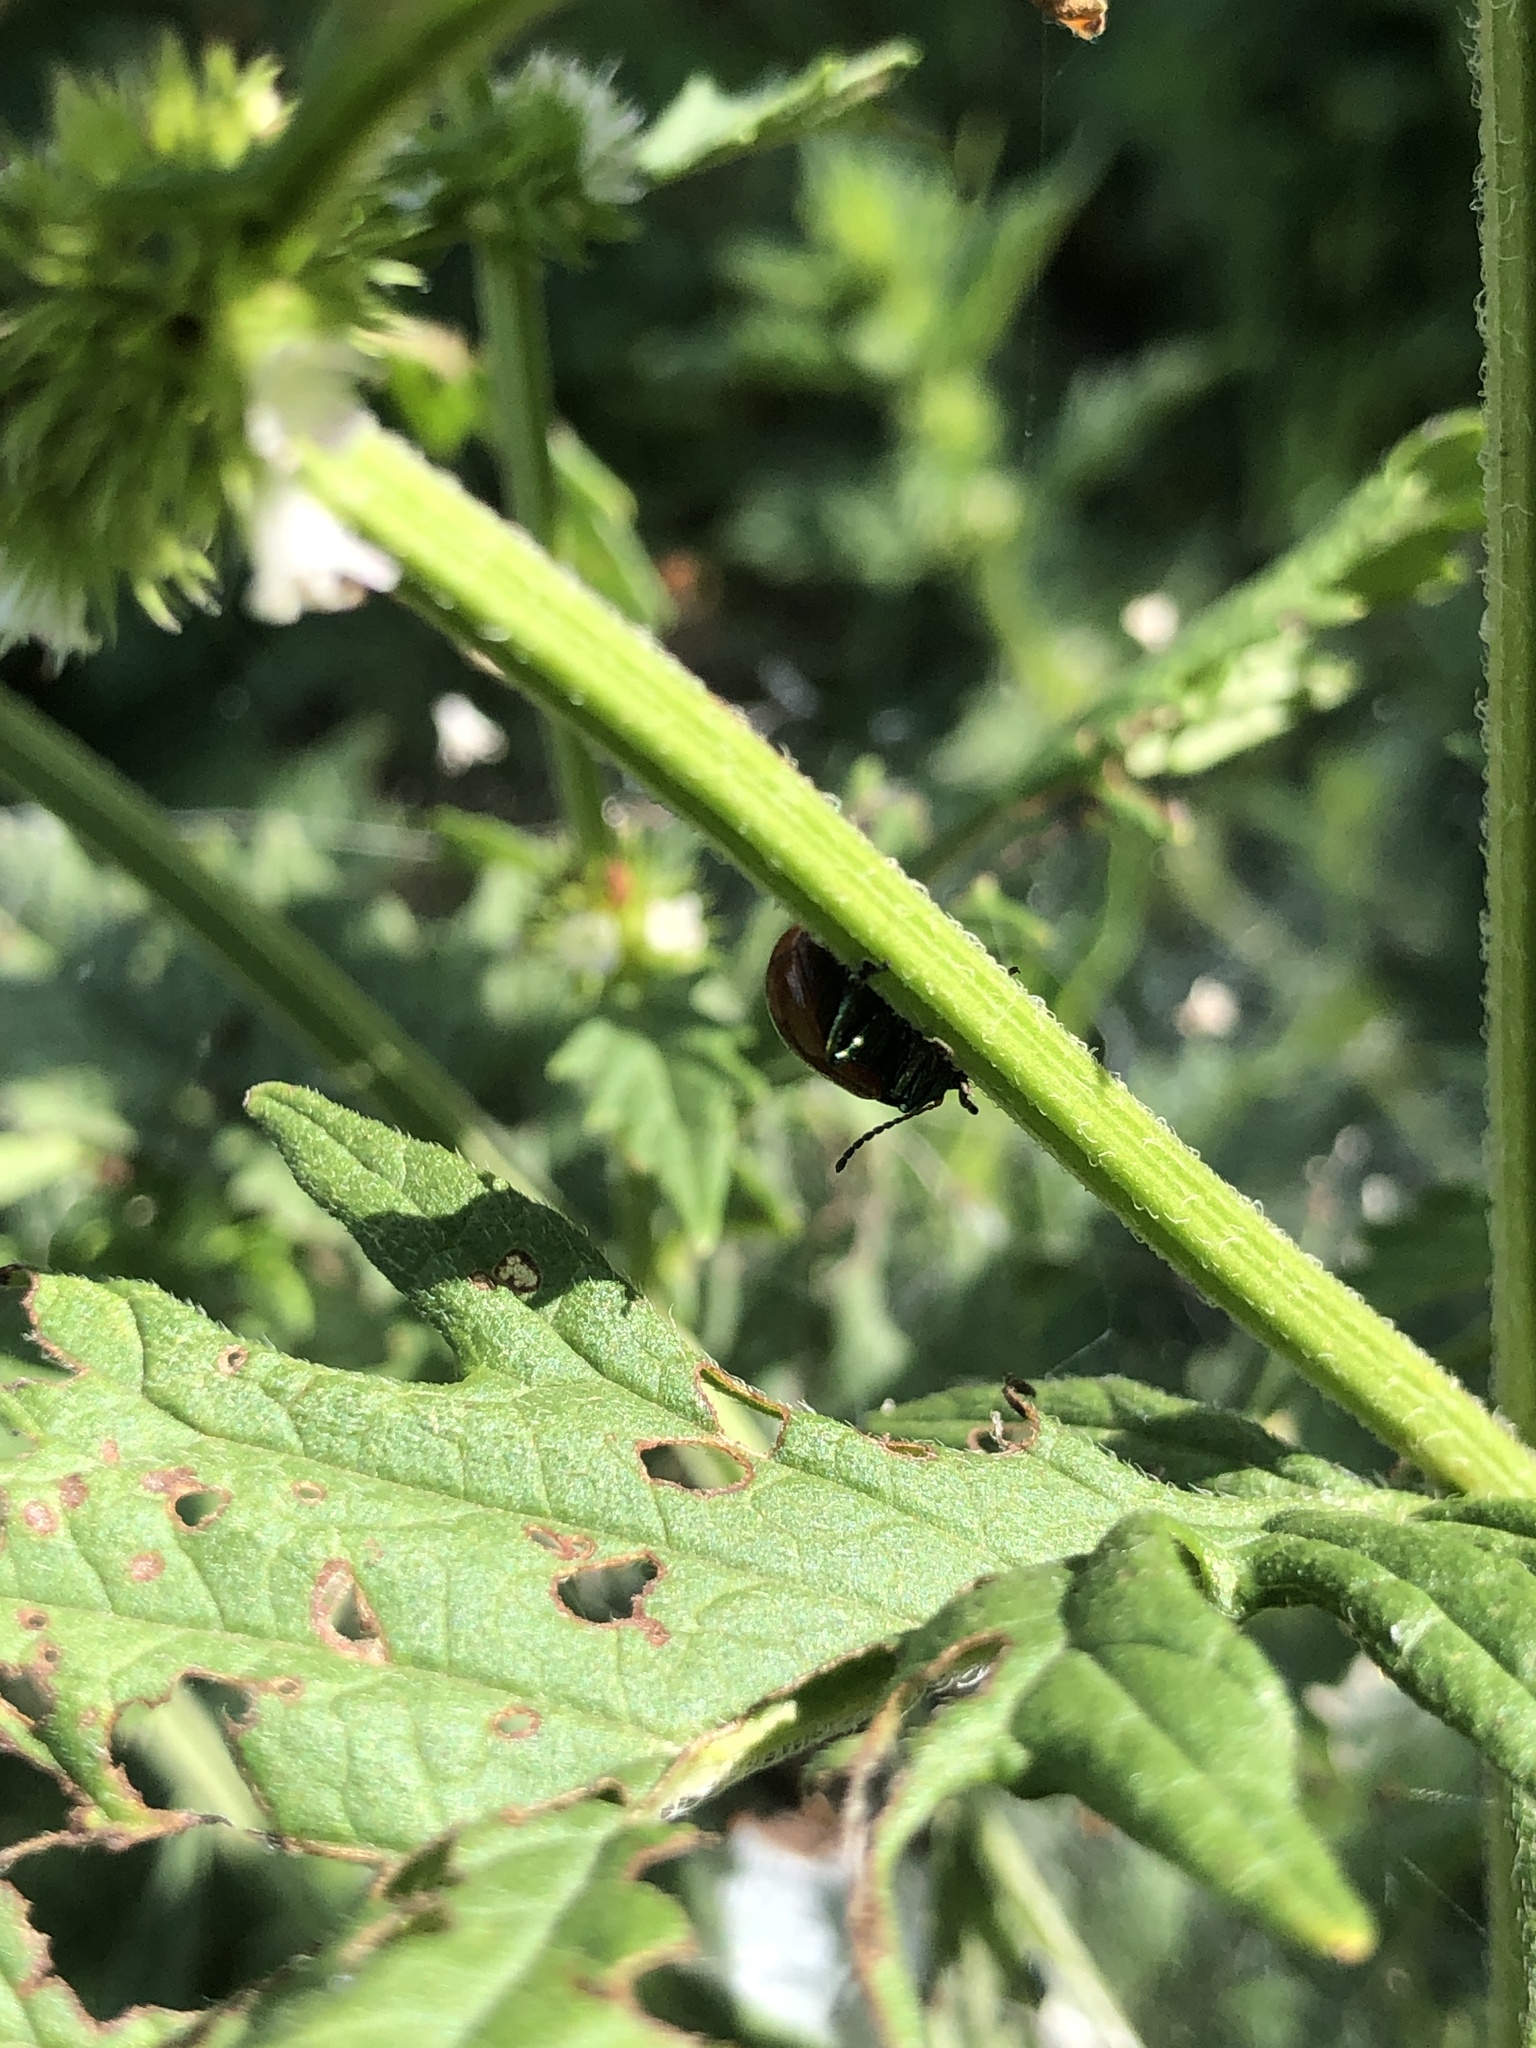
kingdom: Animalia
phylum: Arthropoda
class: Insecta
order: Coleoptera
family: Chrysomelidae
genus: Chrysomela
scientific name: Chrysomela polita
